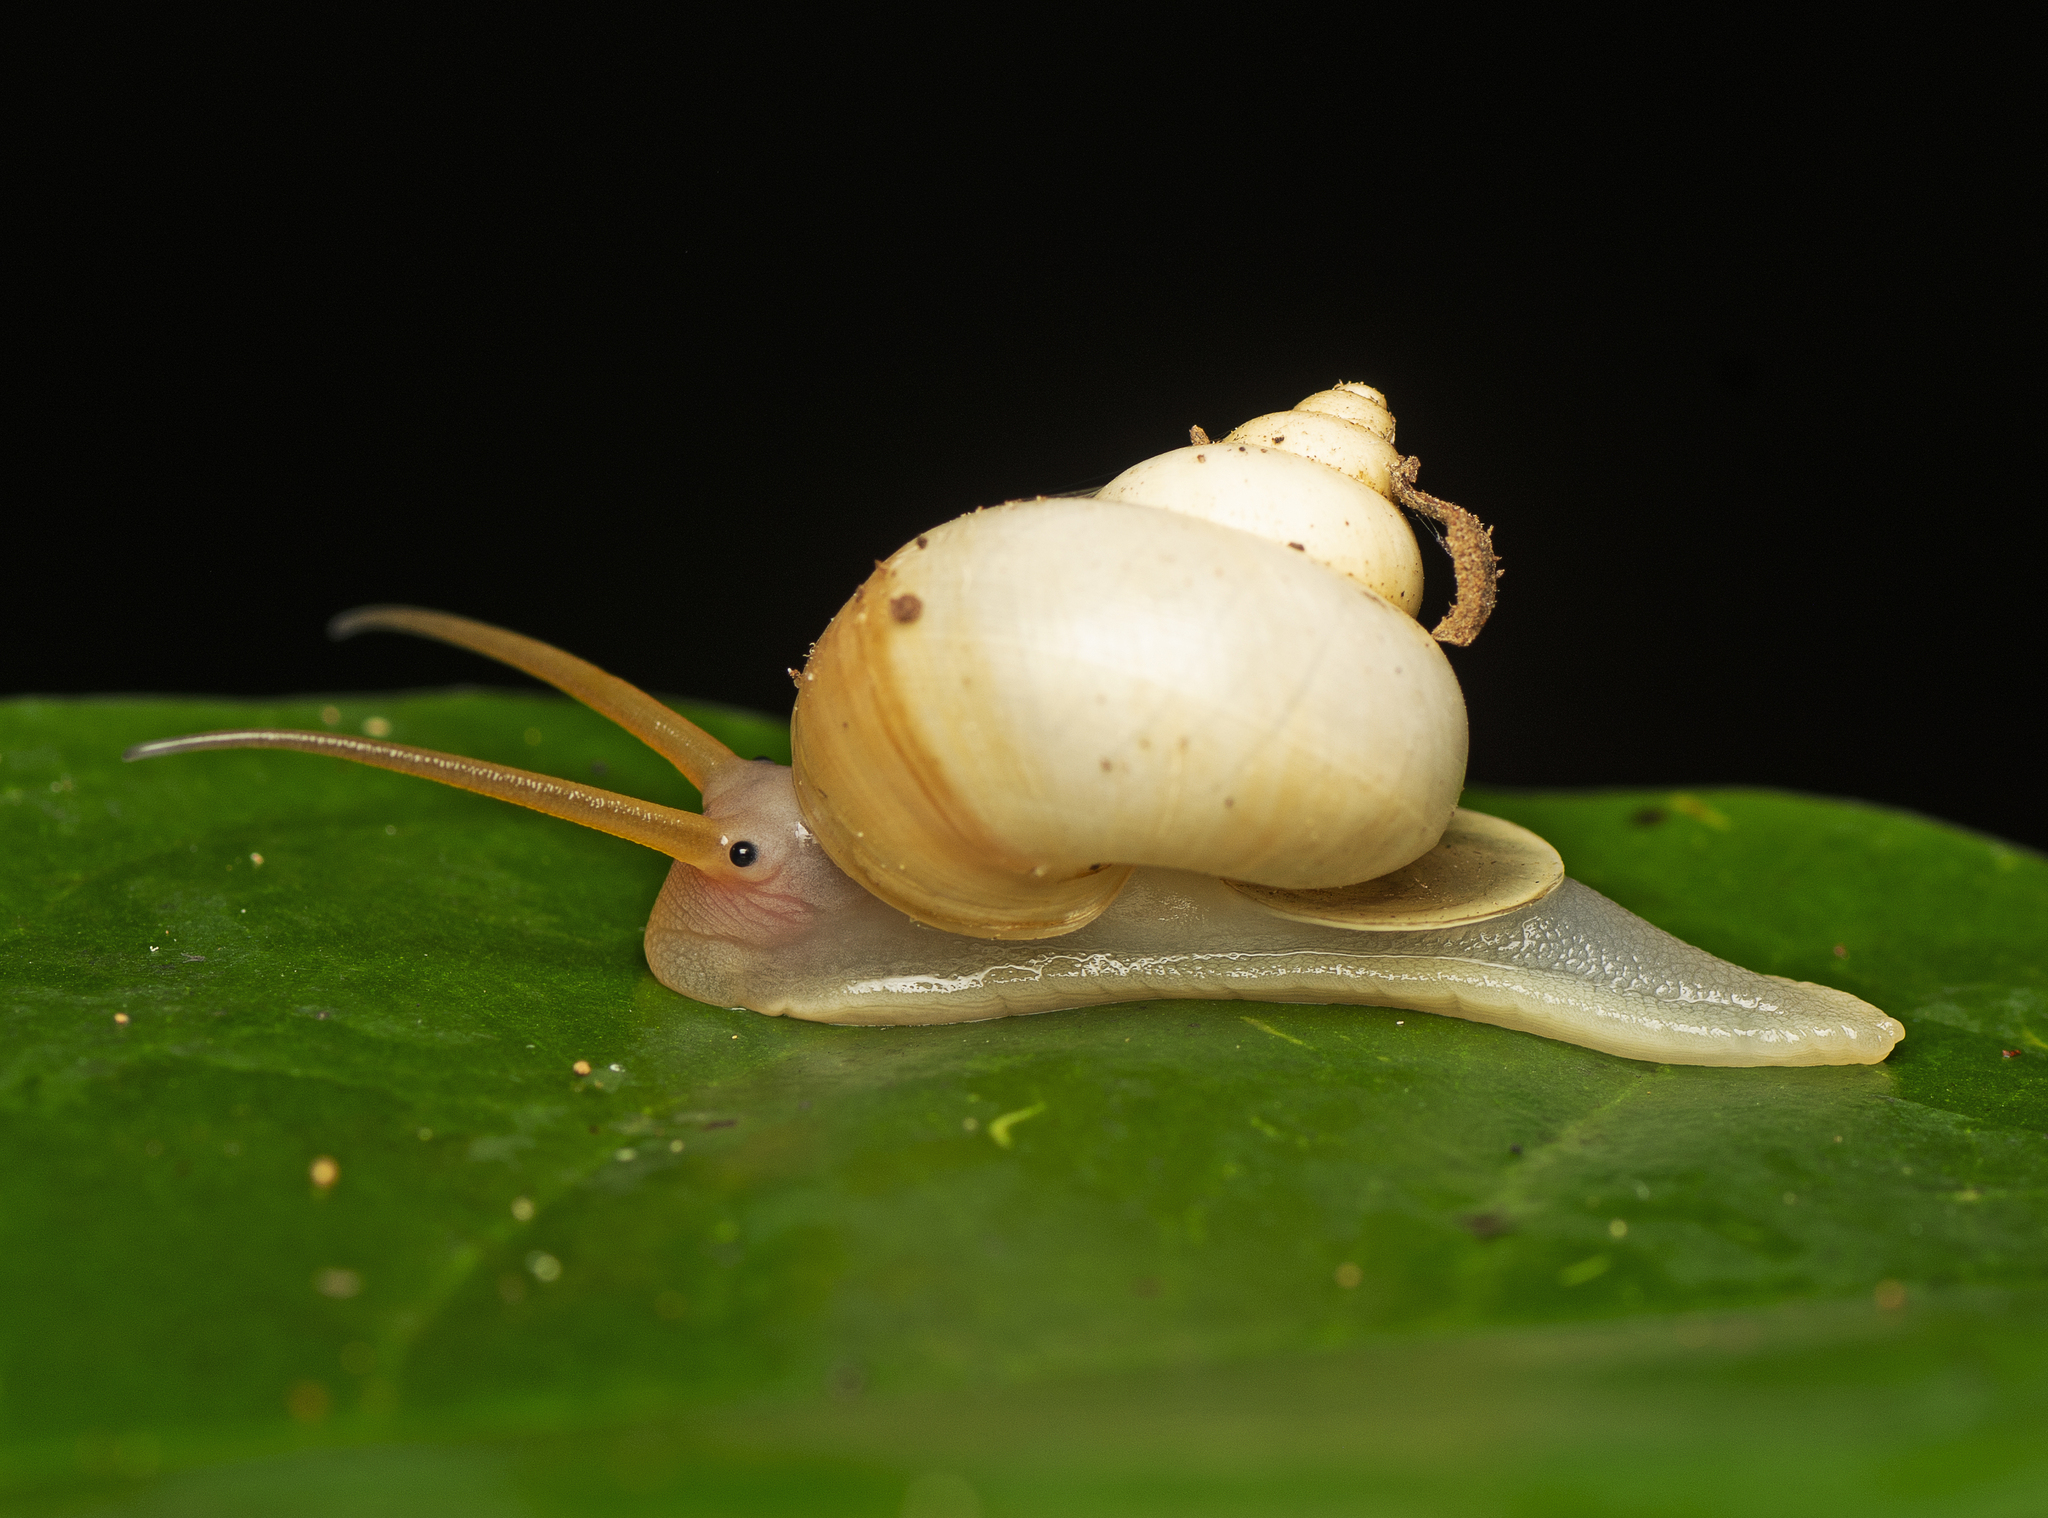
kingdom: Animalia
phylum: Mollusca
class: Gastropoda
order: Architaenioglossa
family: Cyclophoridae
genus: Leptopoma
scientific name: Leptopoma perlucidum
